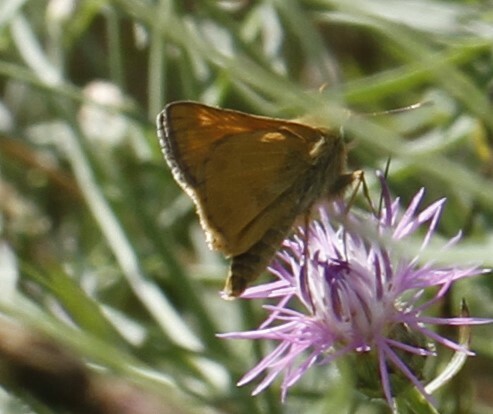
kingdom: Animalia
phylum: Arthropoda
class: Insecta
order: Lepidoptera
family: Hesperiidae
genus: Atalopedes
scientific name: Atalopedes
